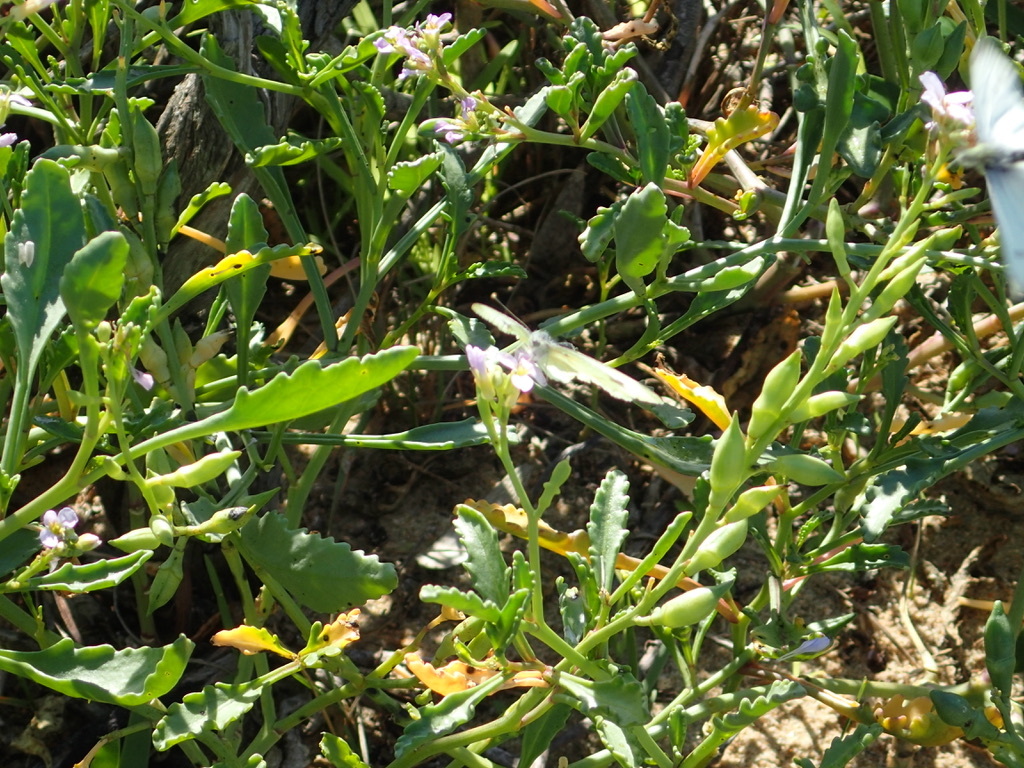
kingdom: Animalia
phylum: Arthropoda
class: Insecta
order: Lepidoptera
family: Pieridae
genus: Pieris
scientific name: Pieris rapae
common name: Small white
